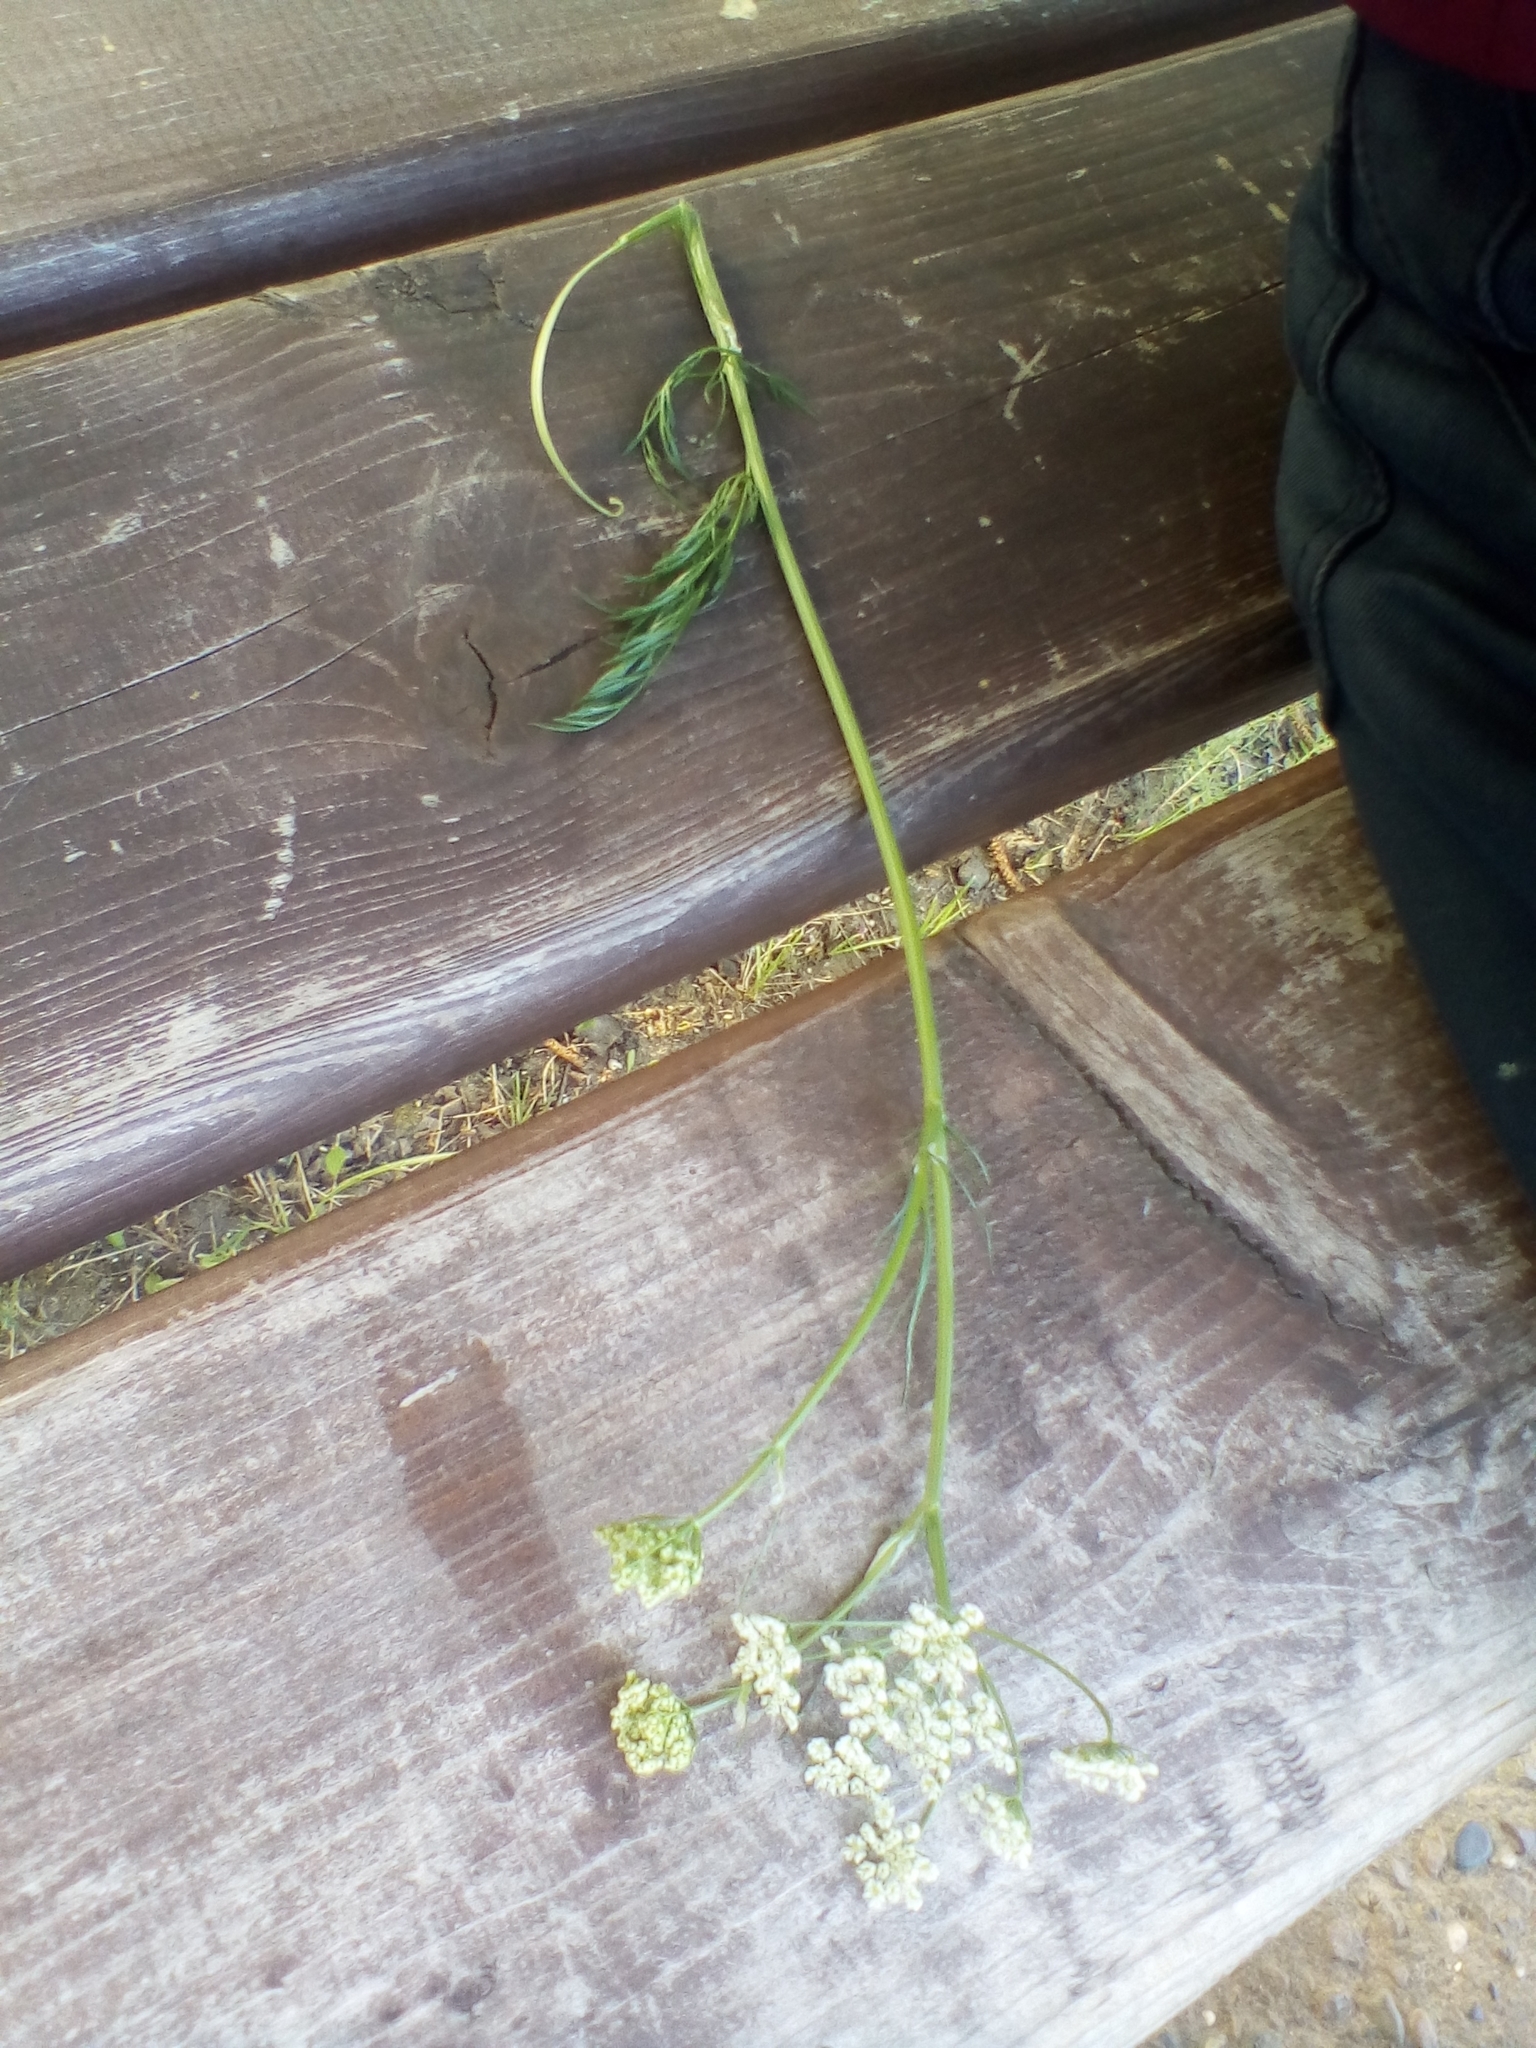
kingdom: Plantae
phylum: Tracheophyta
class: Magnoliopsida
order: Apiales
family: Apiaceae
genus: Carum
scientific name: Carum carvi
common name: Caraway
